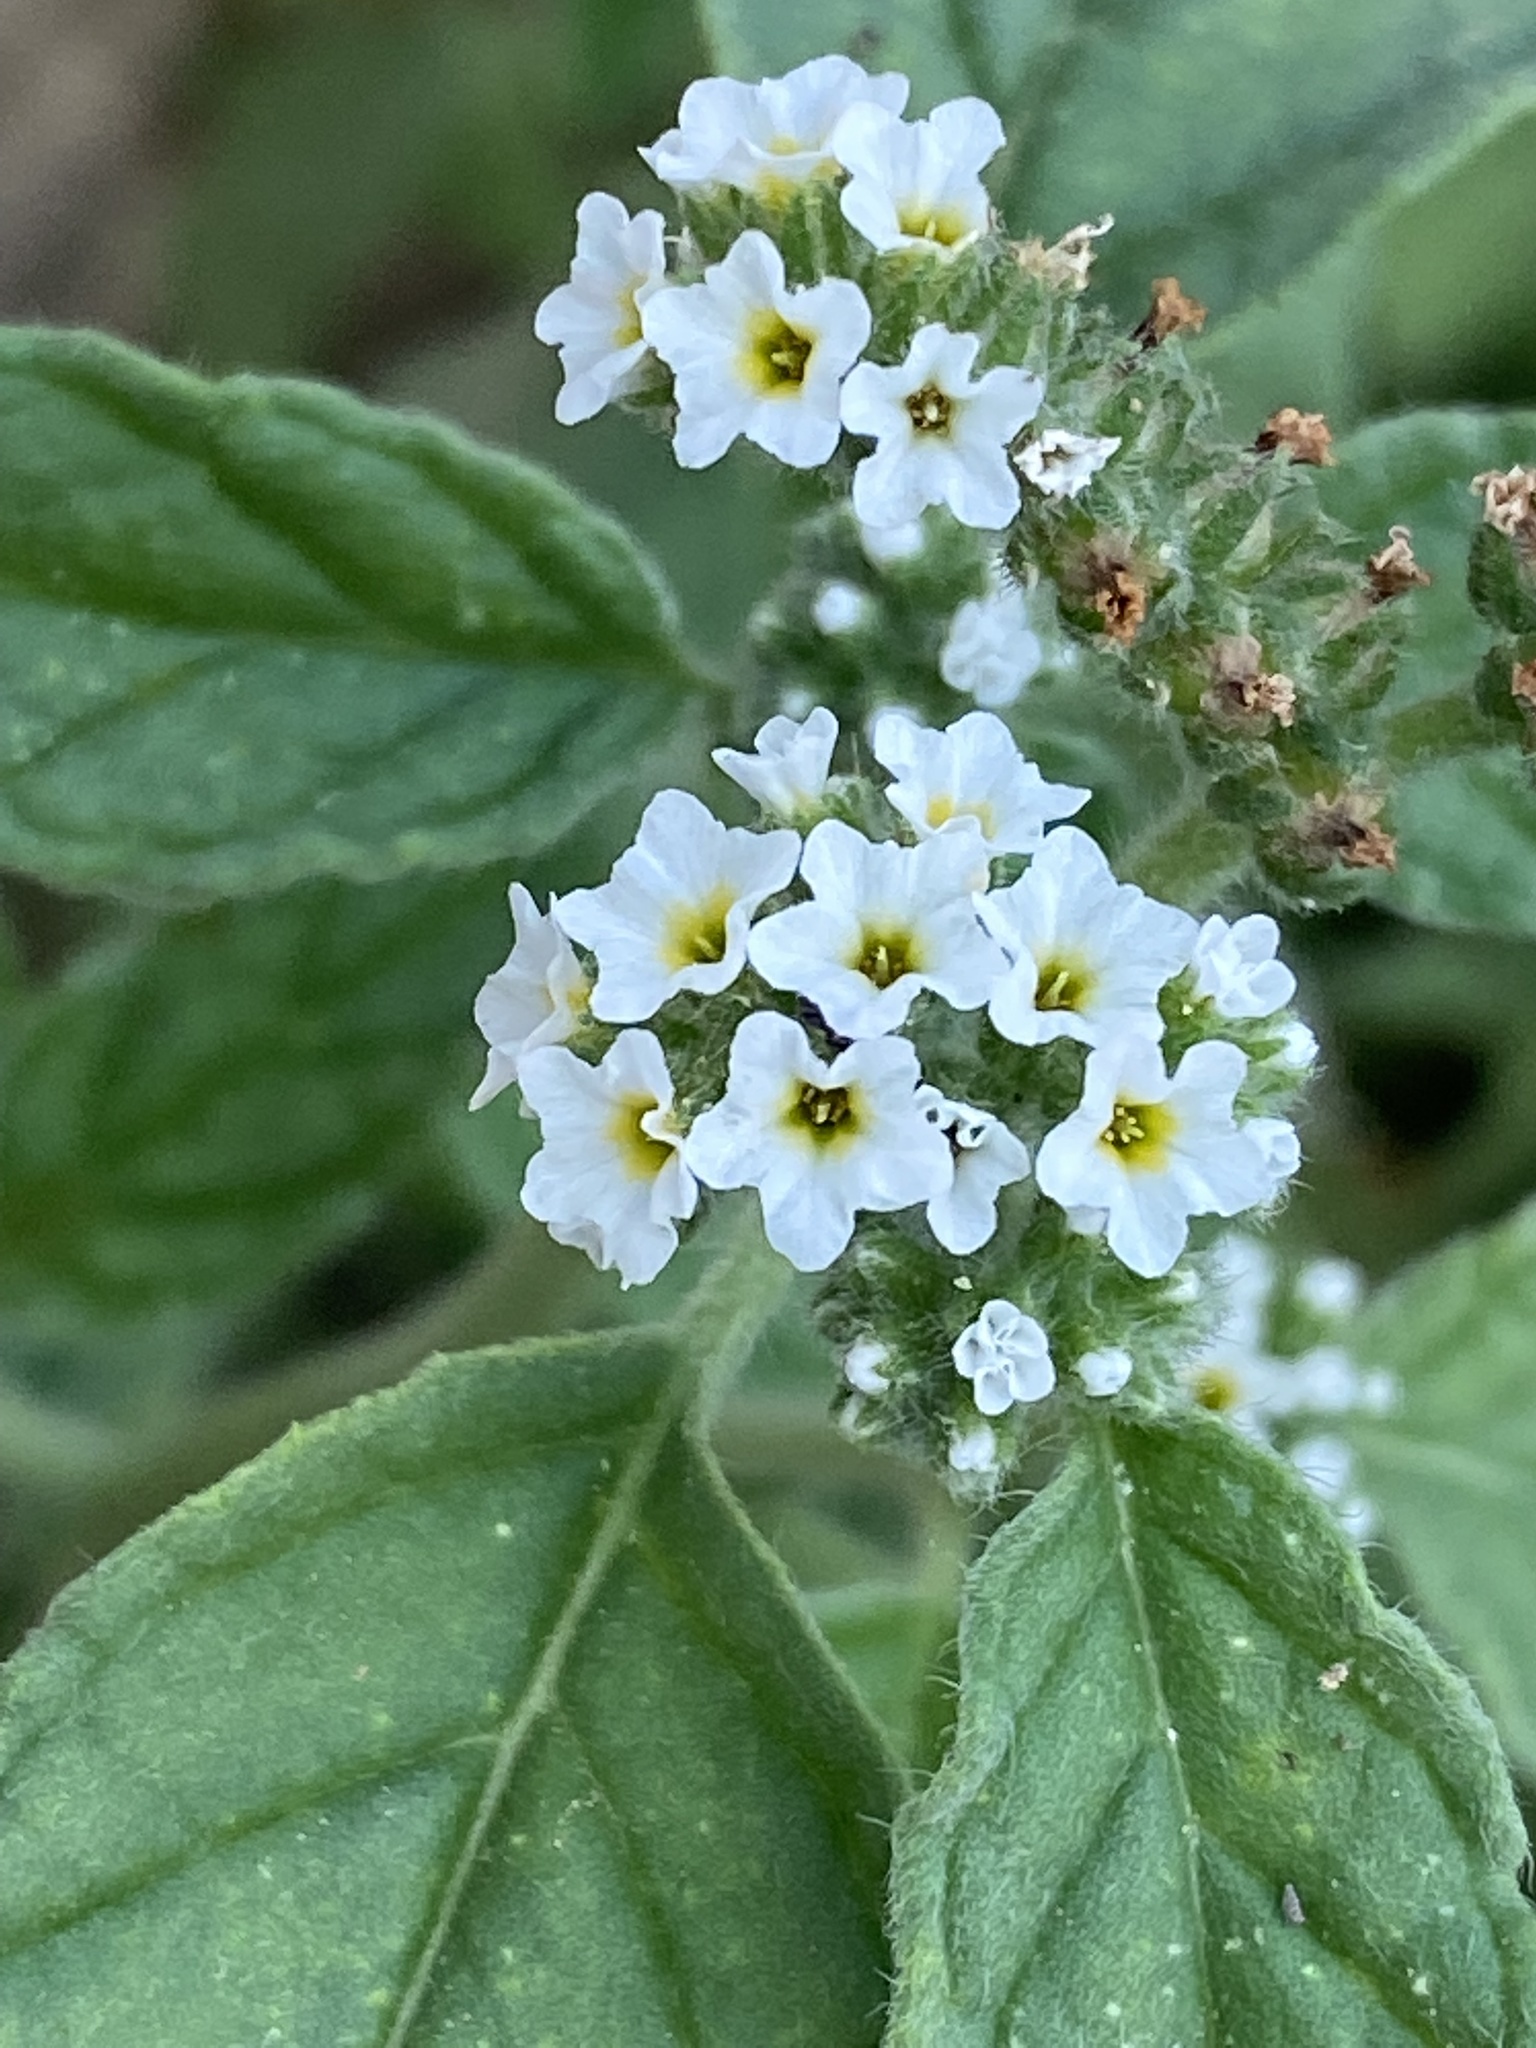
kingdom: Plantae
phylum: Tracheophyta
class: Magnoliopsida
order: Boraginales
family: Heliotropiaceae
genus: Heliotropium
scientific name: Heliotropium europaeum
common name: European heliotrope
